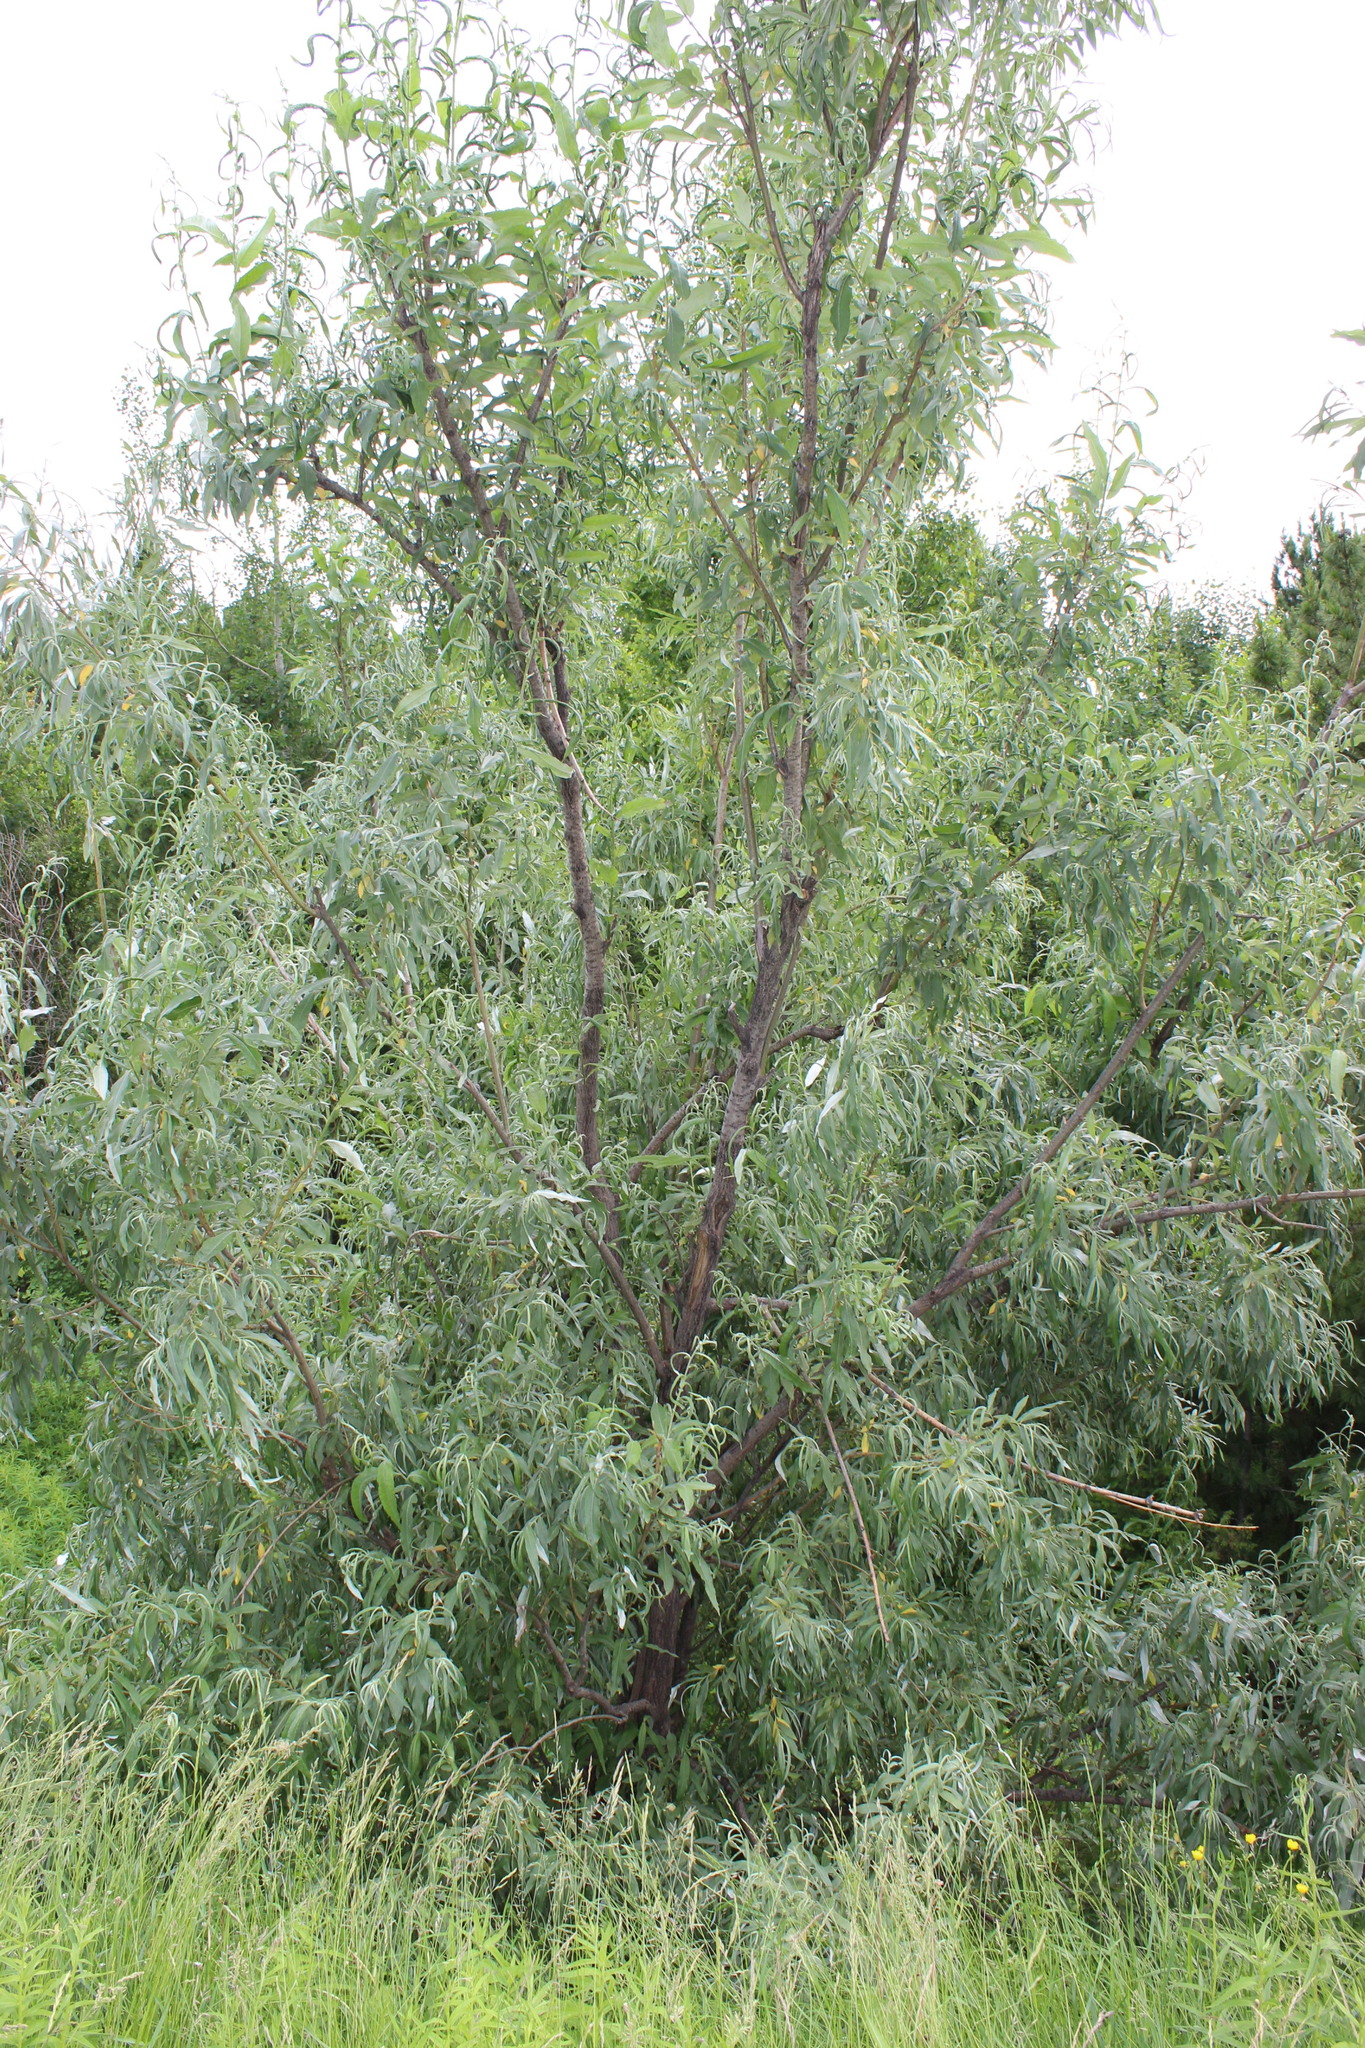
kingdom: Plantae
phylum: Tracheophyta
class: Magnoliopsida
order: Malpighiales
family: Salicaceae
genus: Salix
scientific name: Salix gmelinii
